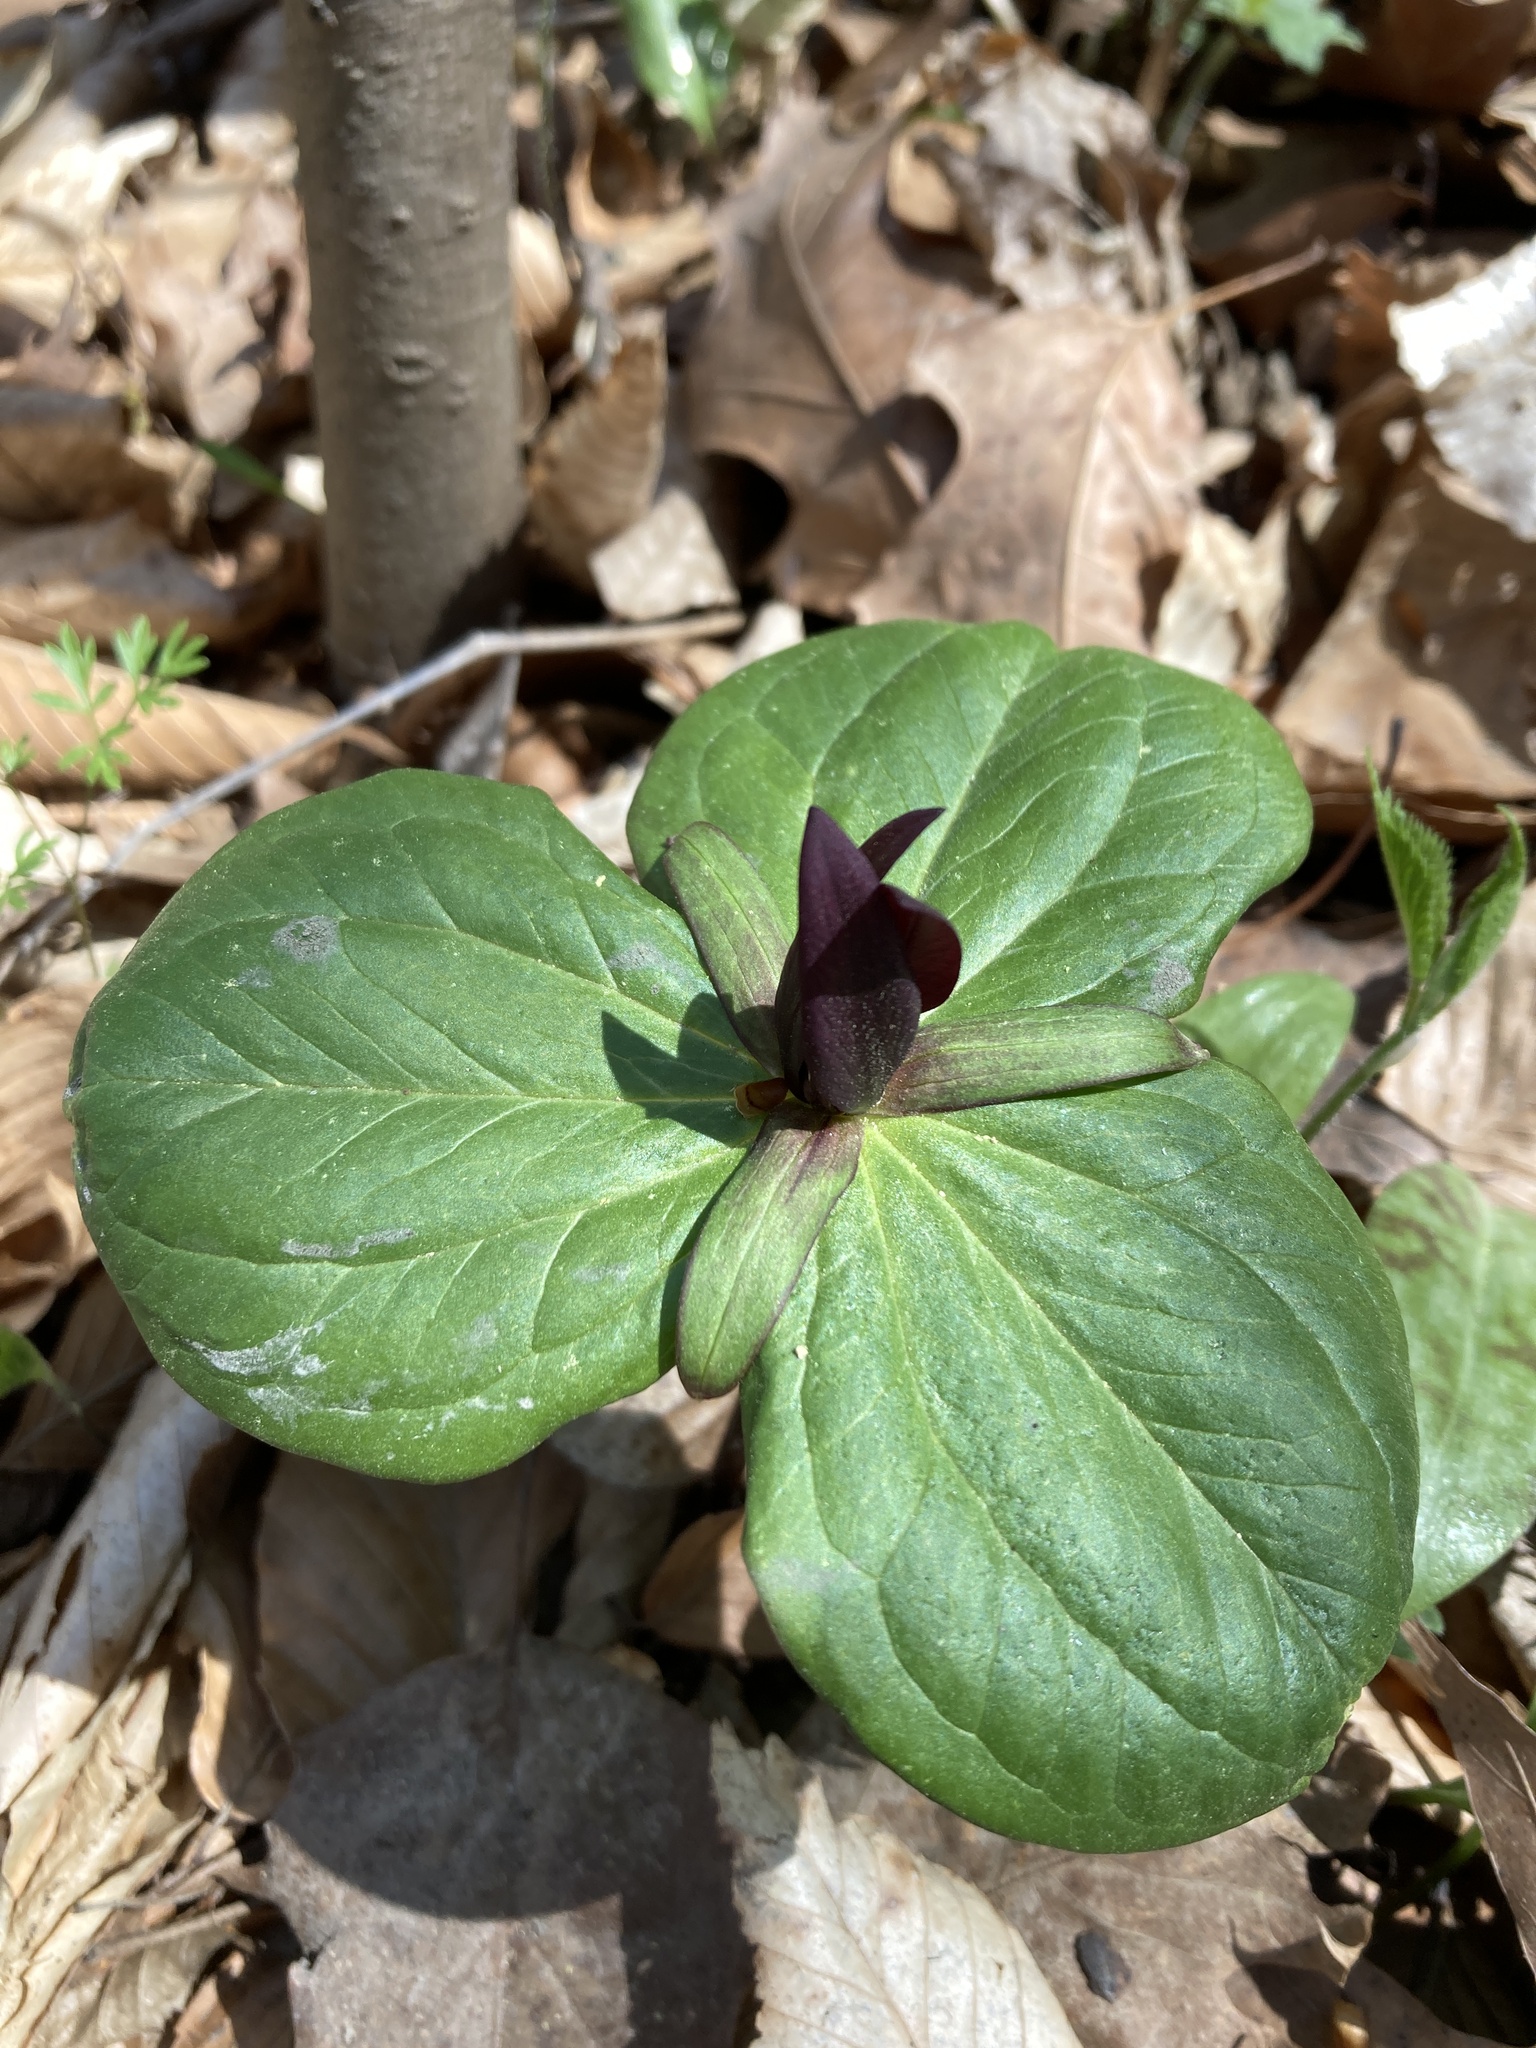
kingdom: Plantae
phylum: Tracheophyta
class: Liliopsida
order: Liliales
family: Melanthiaceae
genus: Trillium
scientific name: Trillium sessile
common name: Sessile trillium
